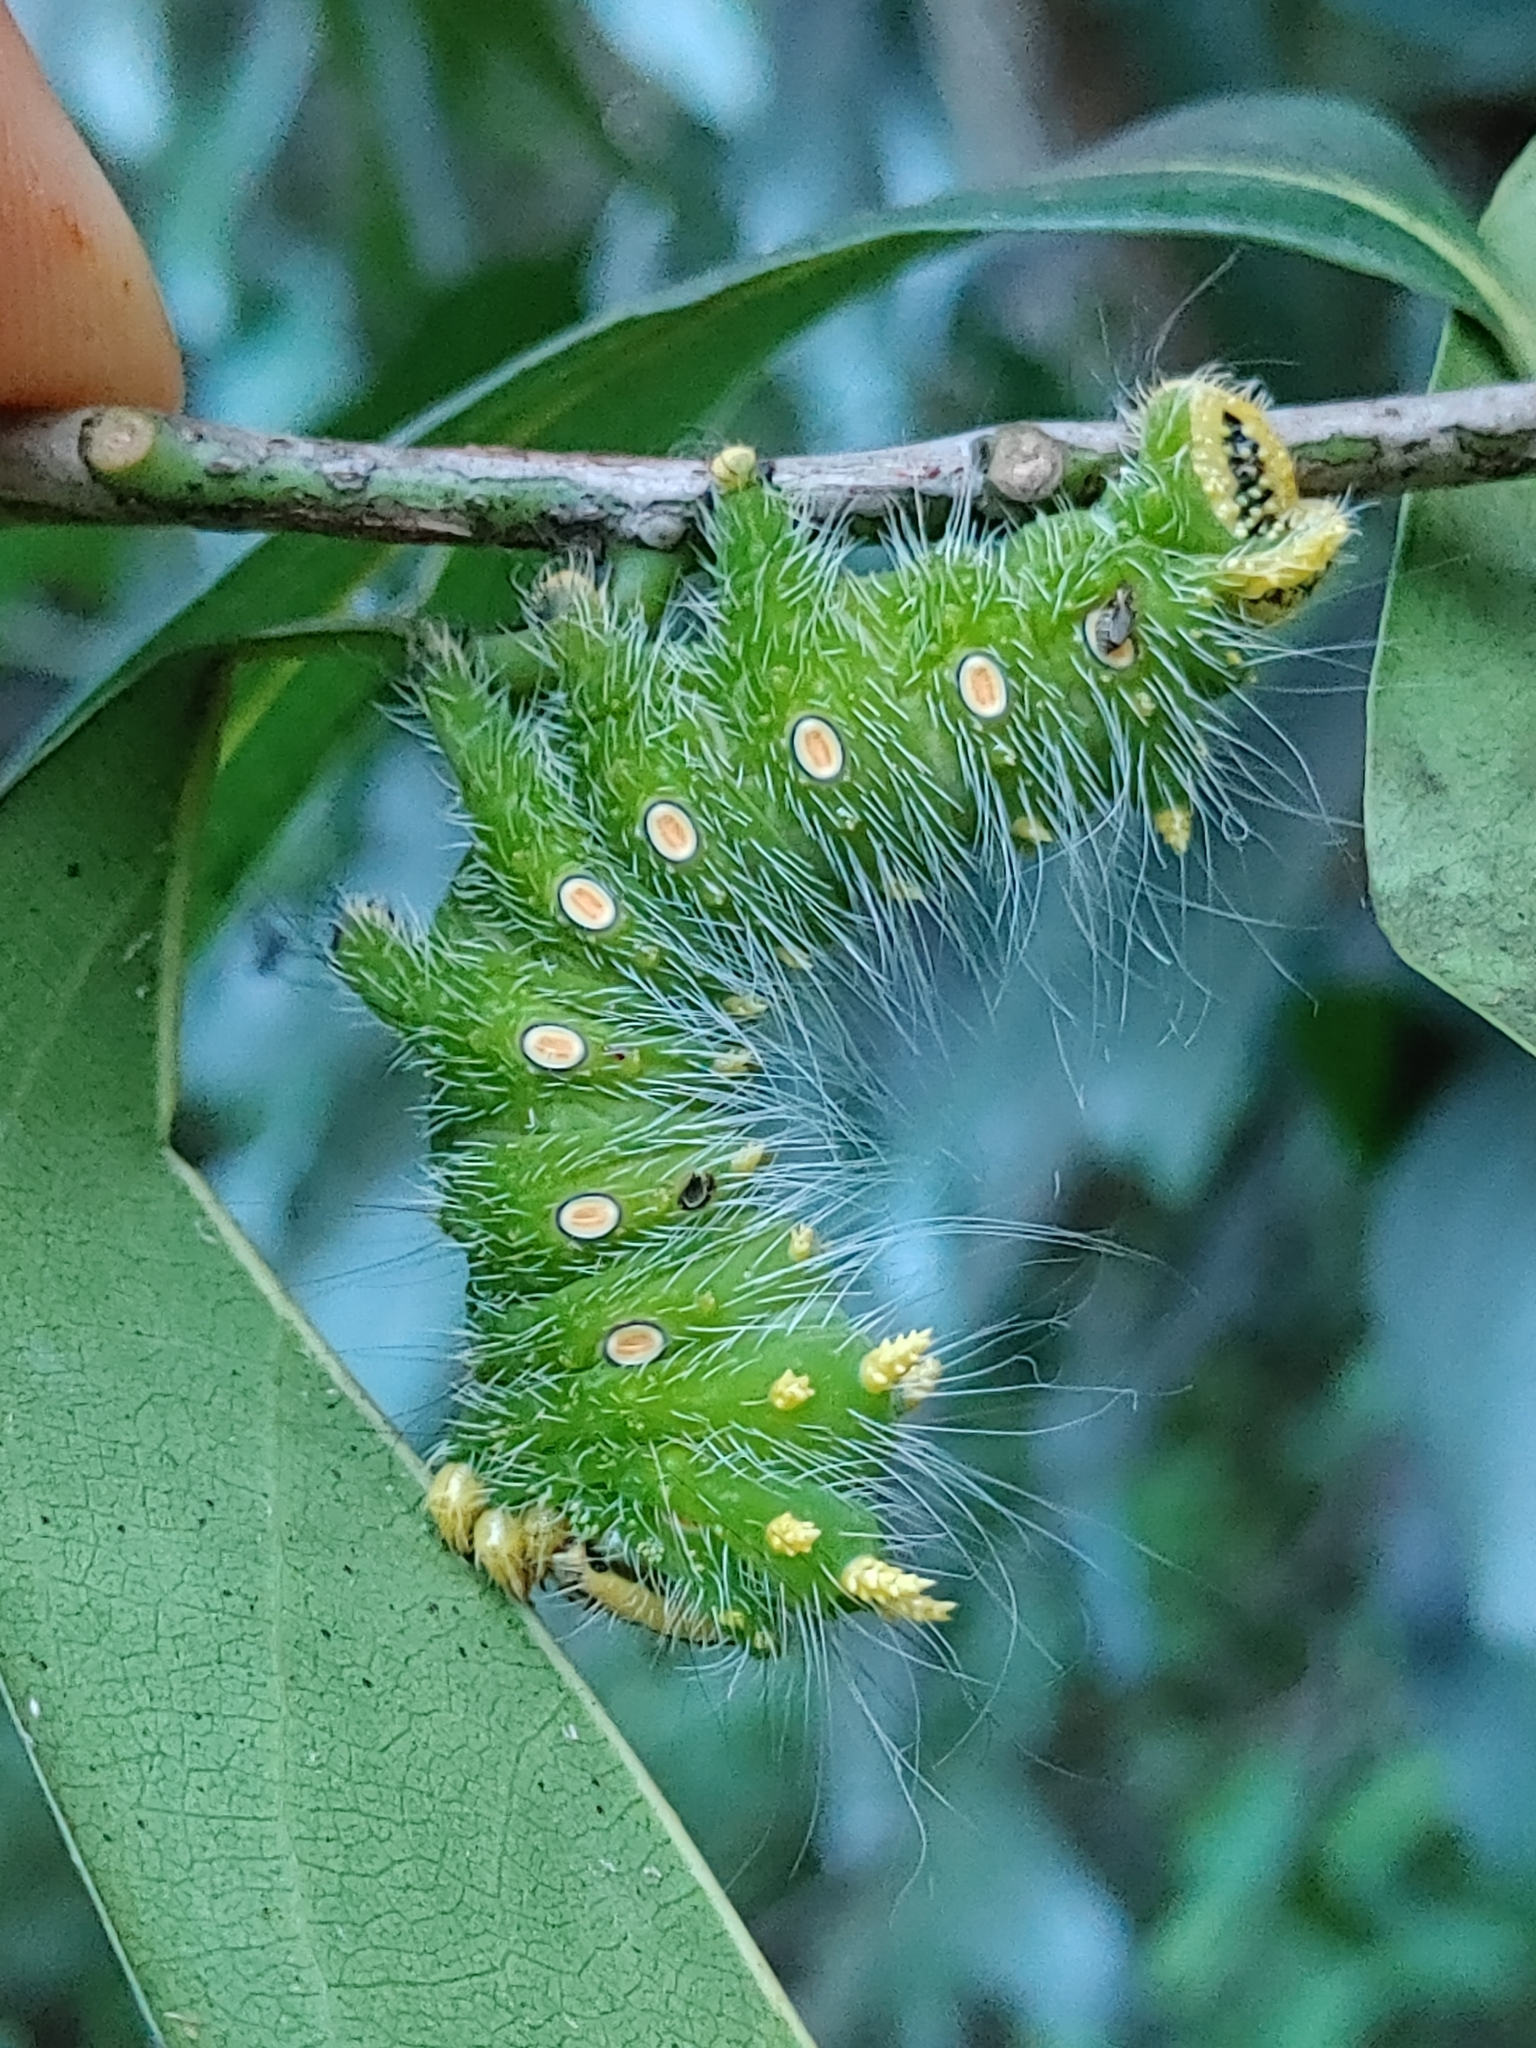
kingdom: Animalia
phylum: Arthropoda
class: Insecta
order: Lepidoptera
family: Saturniidae
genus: Eacles
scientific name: Eacles imperialis
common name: Imperial moth
